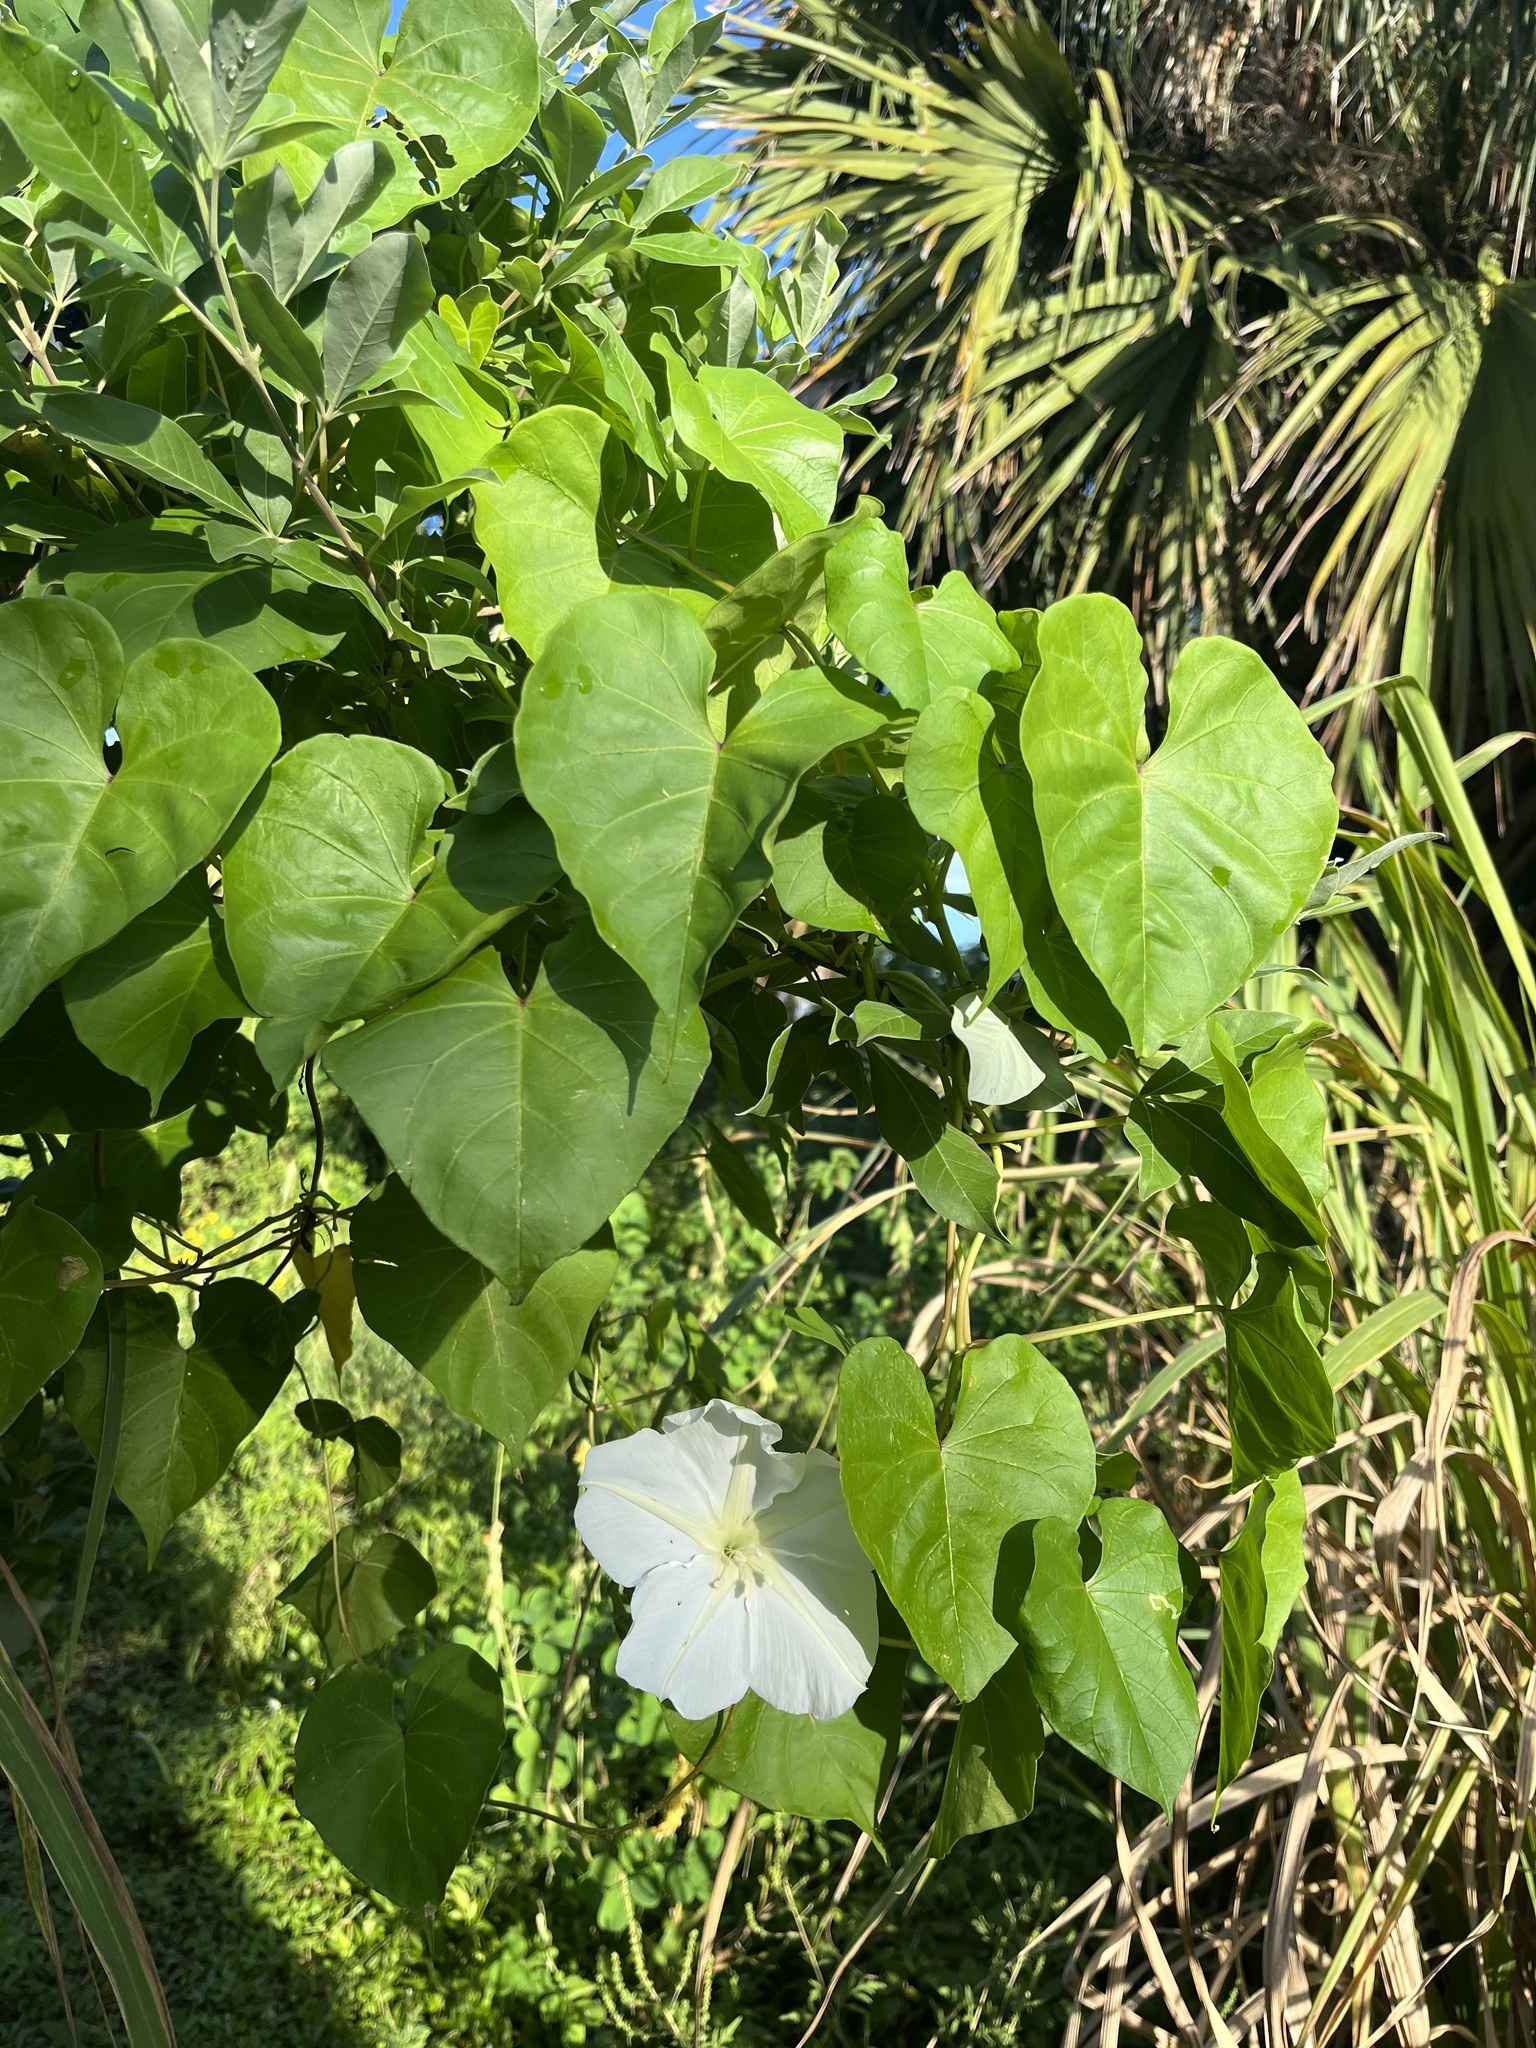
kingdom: Plantae
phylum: Tracheophyta
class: Magnoliopsida
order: Solanales
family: Convolvulaceae
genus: Ipomoea
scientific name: Ipomoea alba
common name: Moonflower
